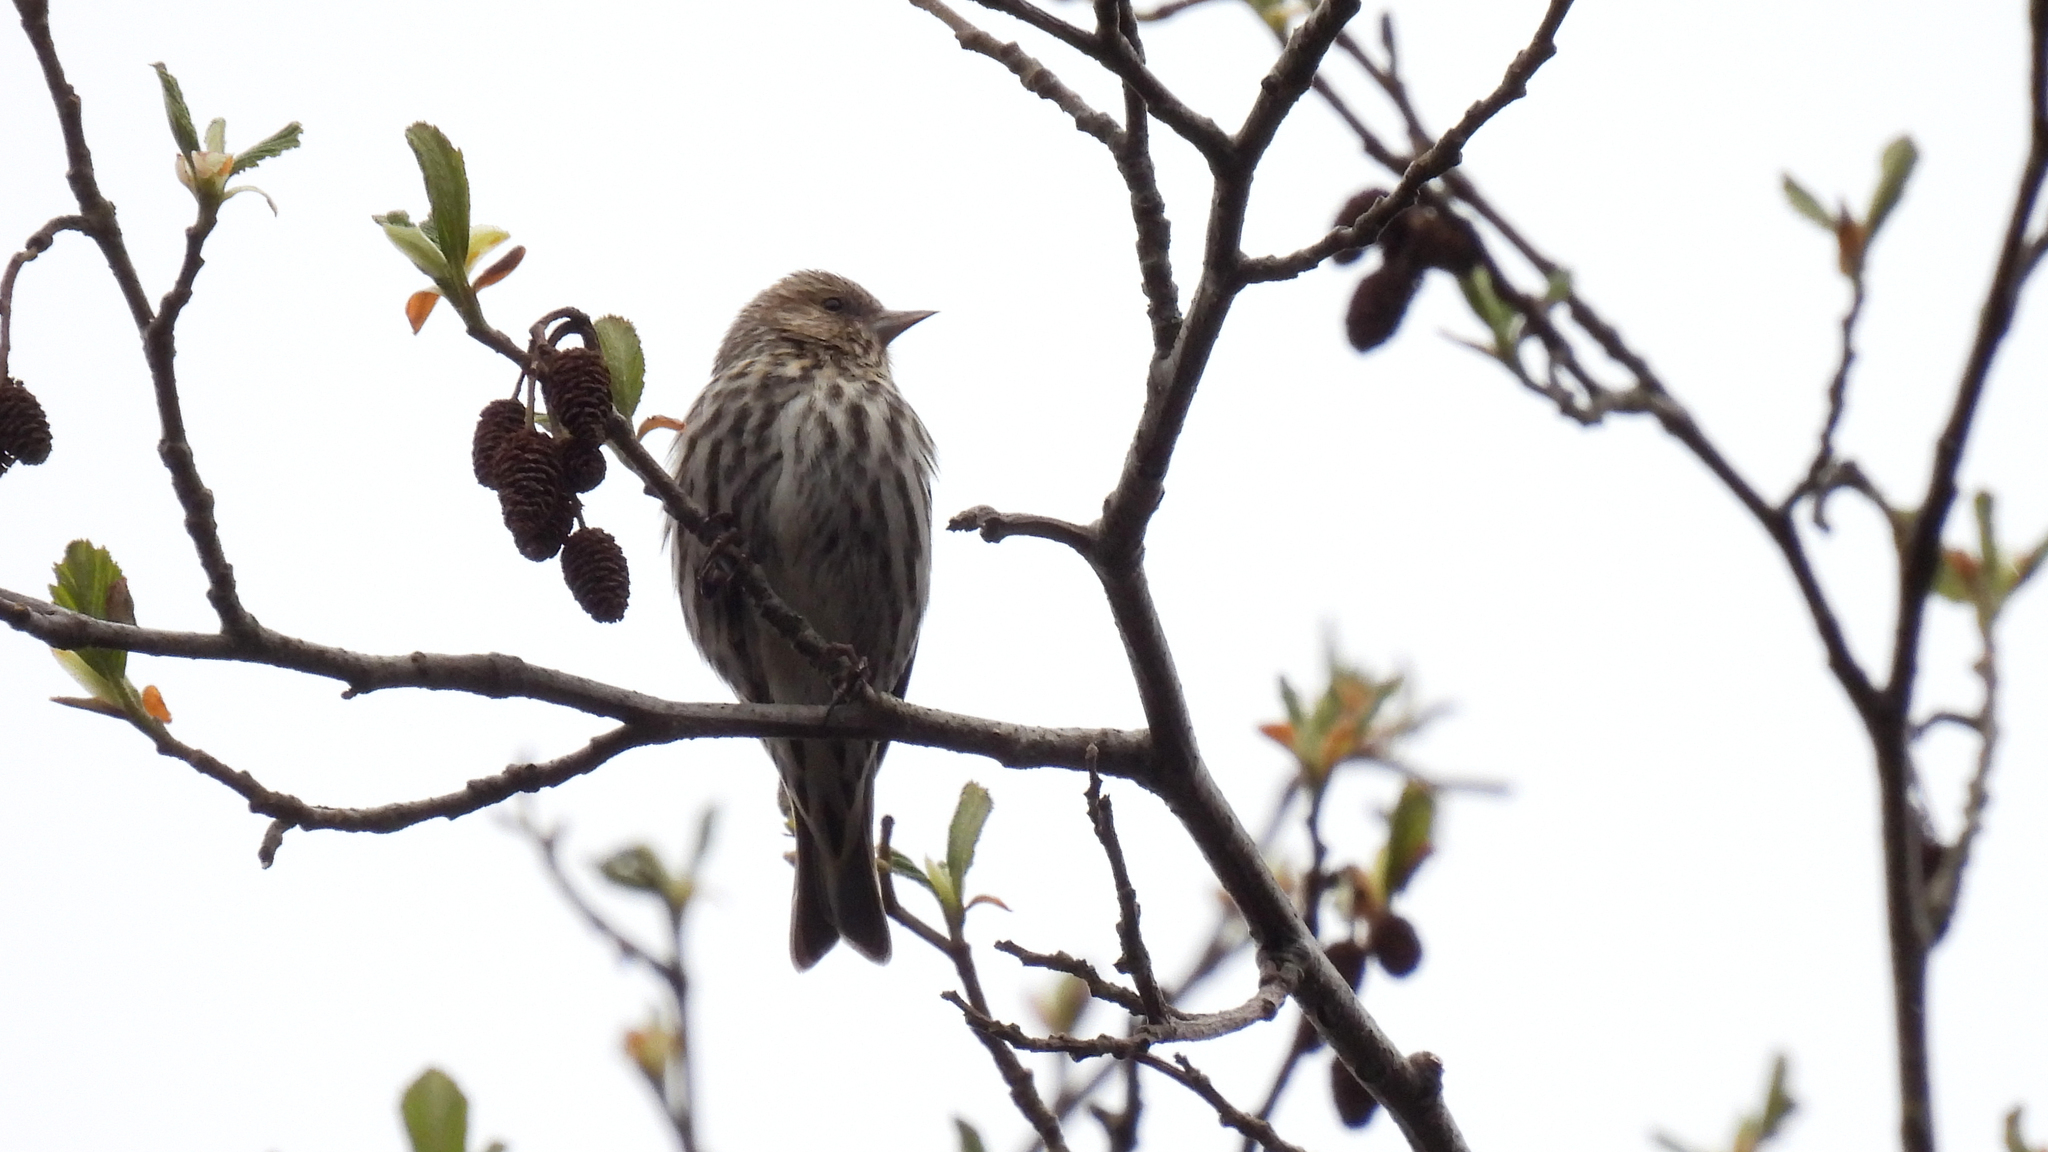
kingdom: Animalia
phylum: Chordata
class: Aves
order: Passeriformes
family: Fringillidae
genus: Spinus
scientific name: Spinus pinus
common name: Pine siskin
